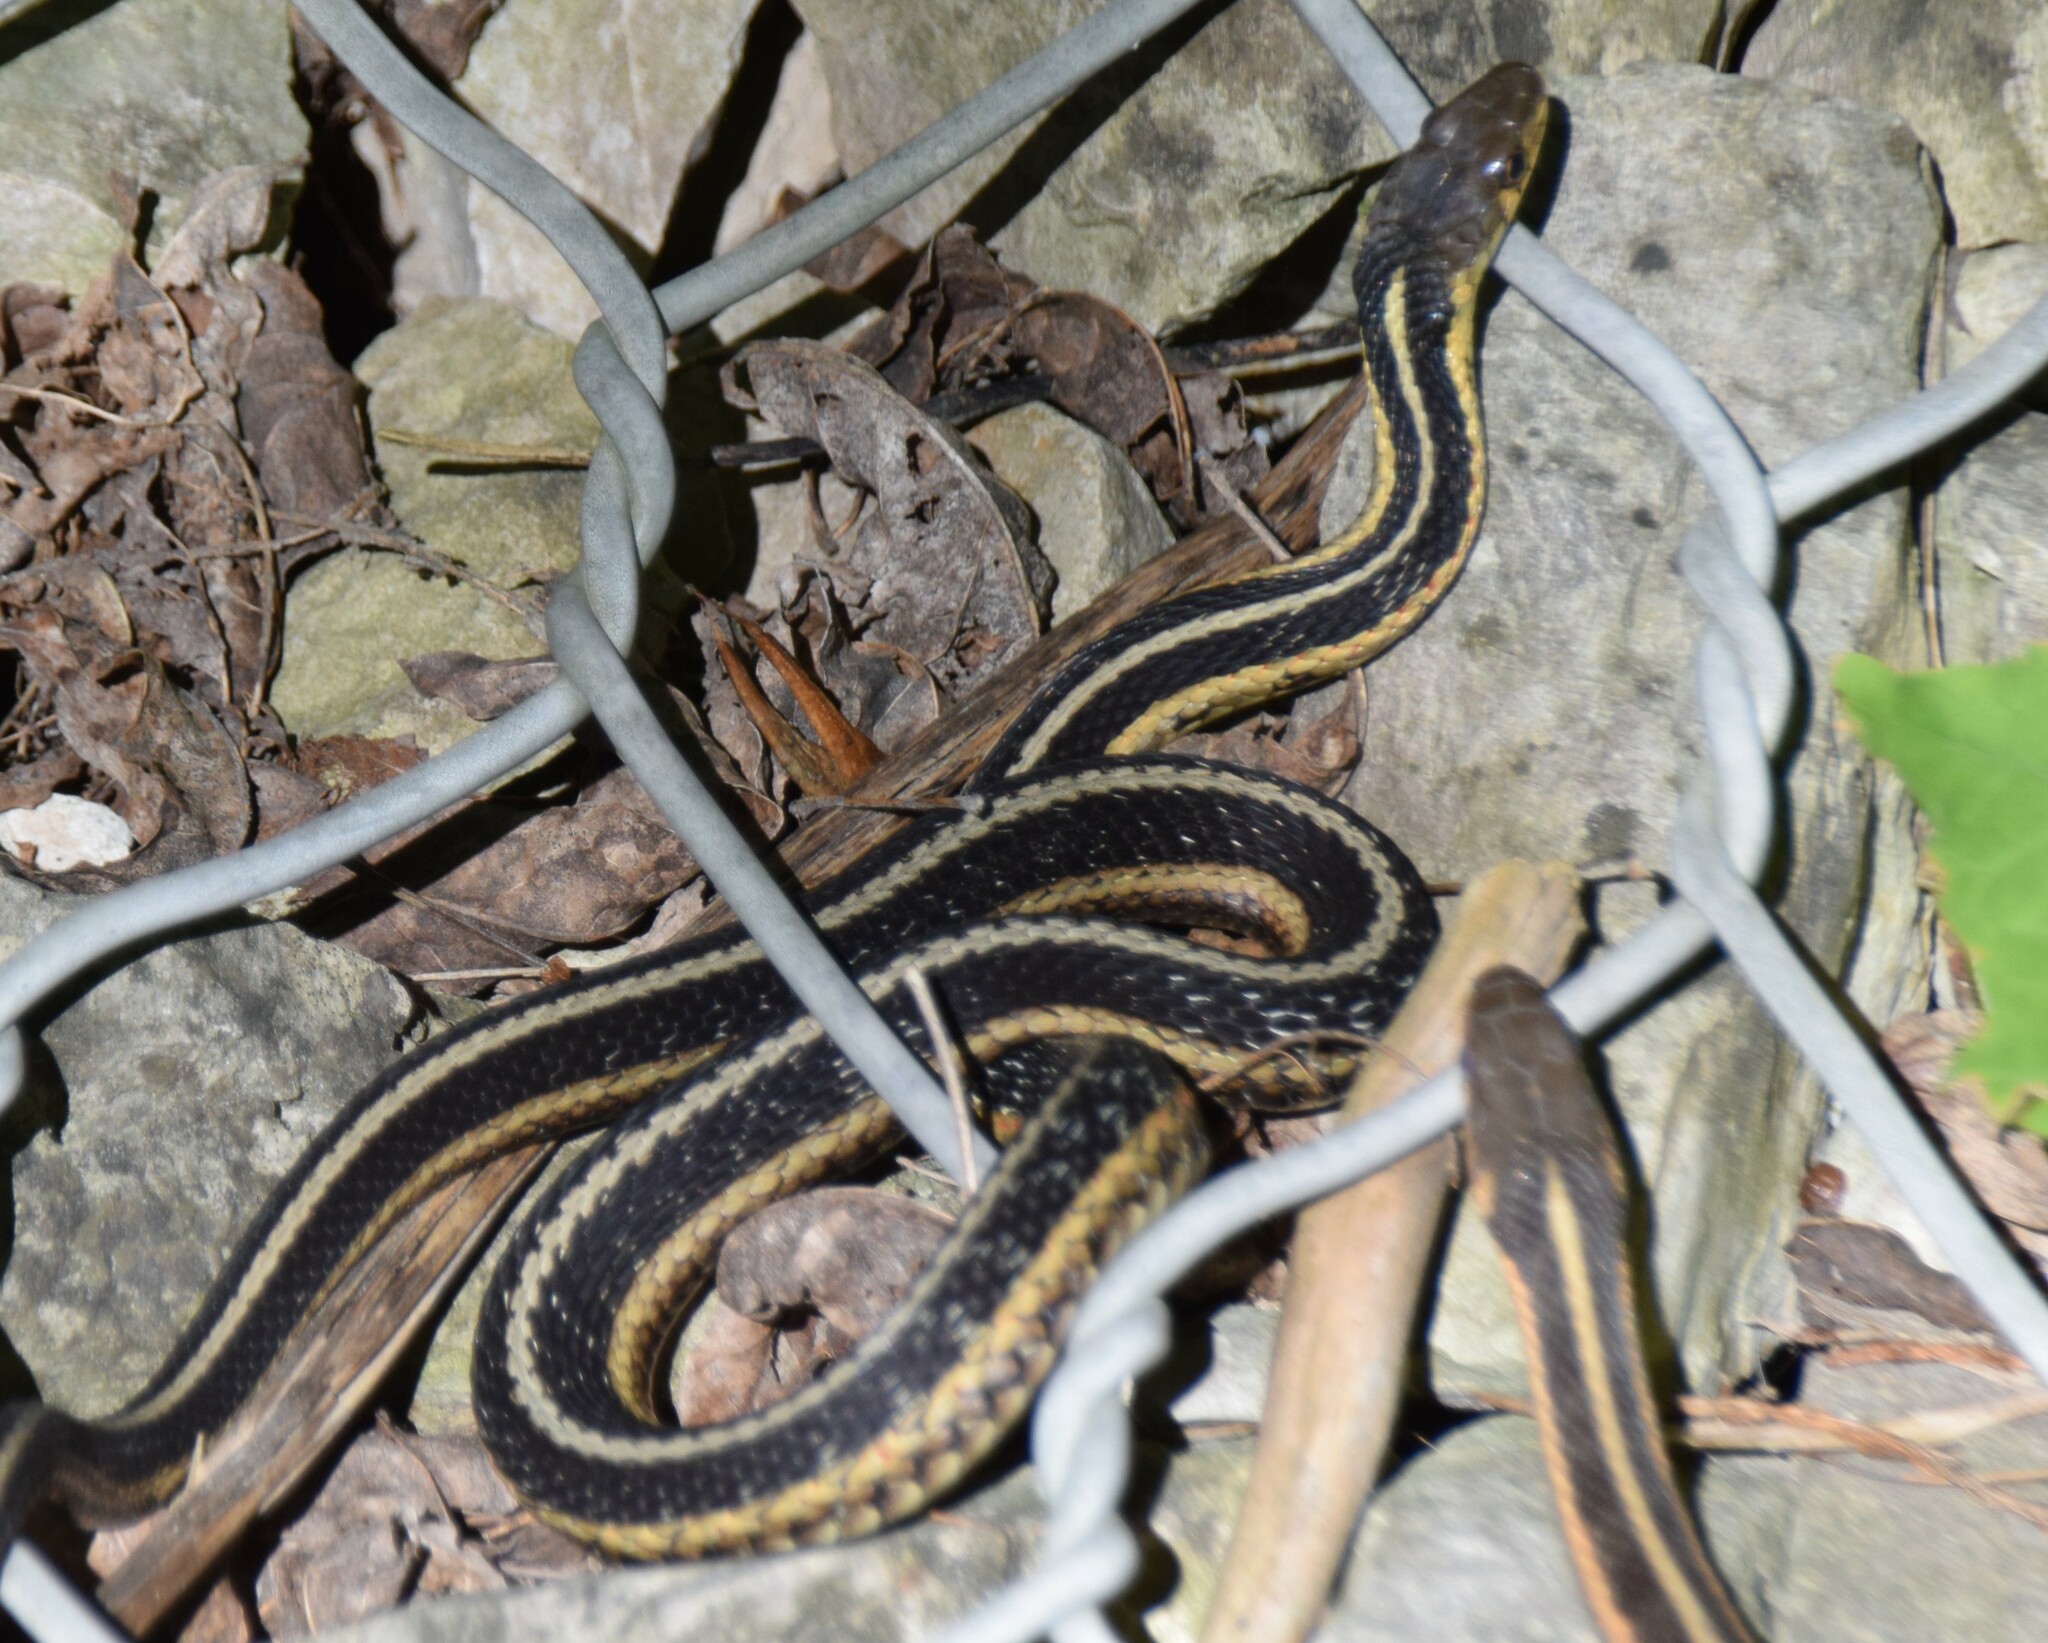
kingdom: Animalia
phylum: Chordata
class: Squamata
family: Colubridae
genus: Thamnophis
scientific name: Thamnophis sirtalis
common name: Common garter snake
